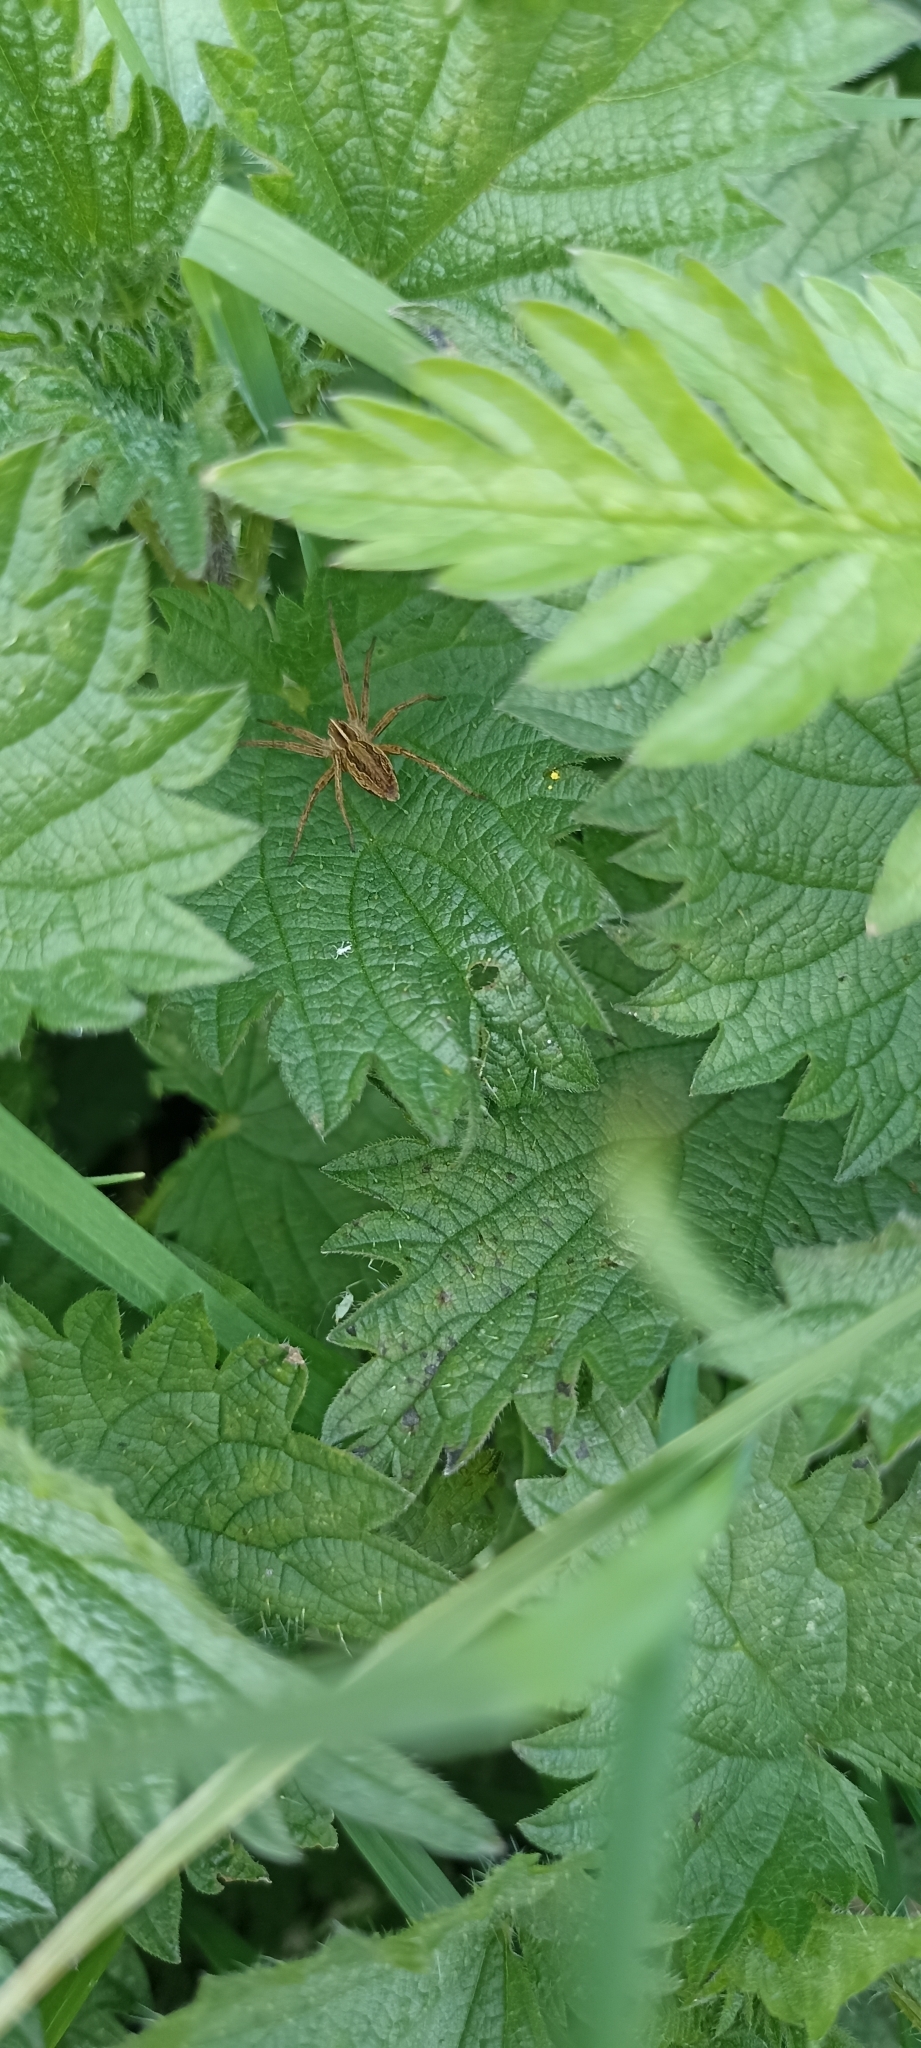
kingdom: Animalia
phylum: Arthropoda
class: Arachnida
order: Araneae
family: Pisauridae
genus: Pisaura
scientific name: Pisaura mirabilis
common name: Tent spider
